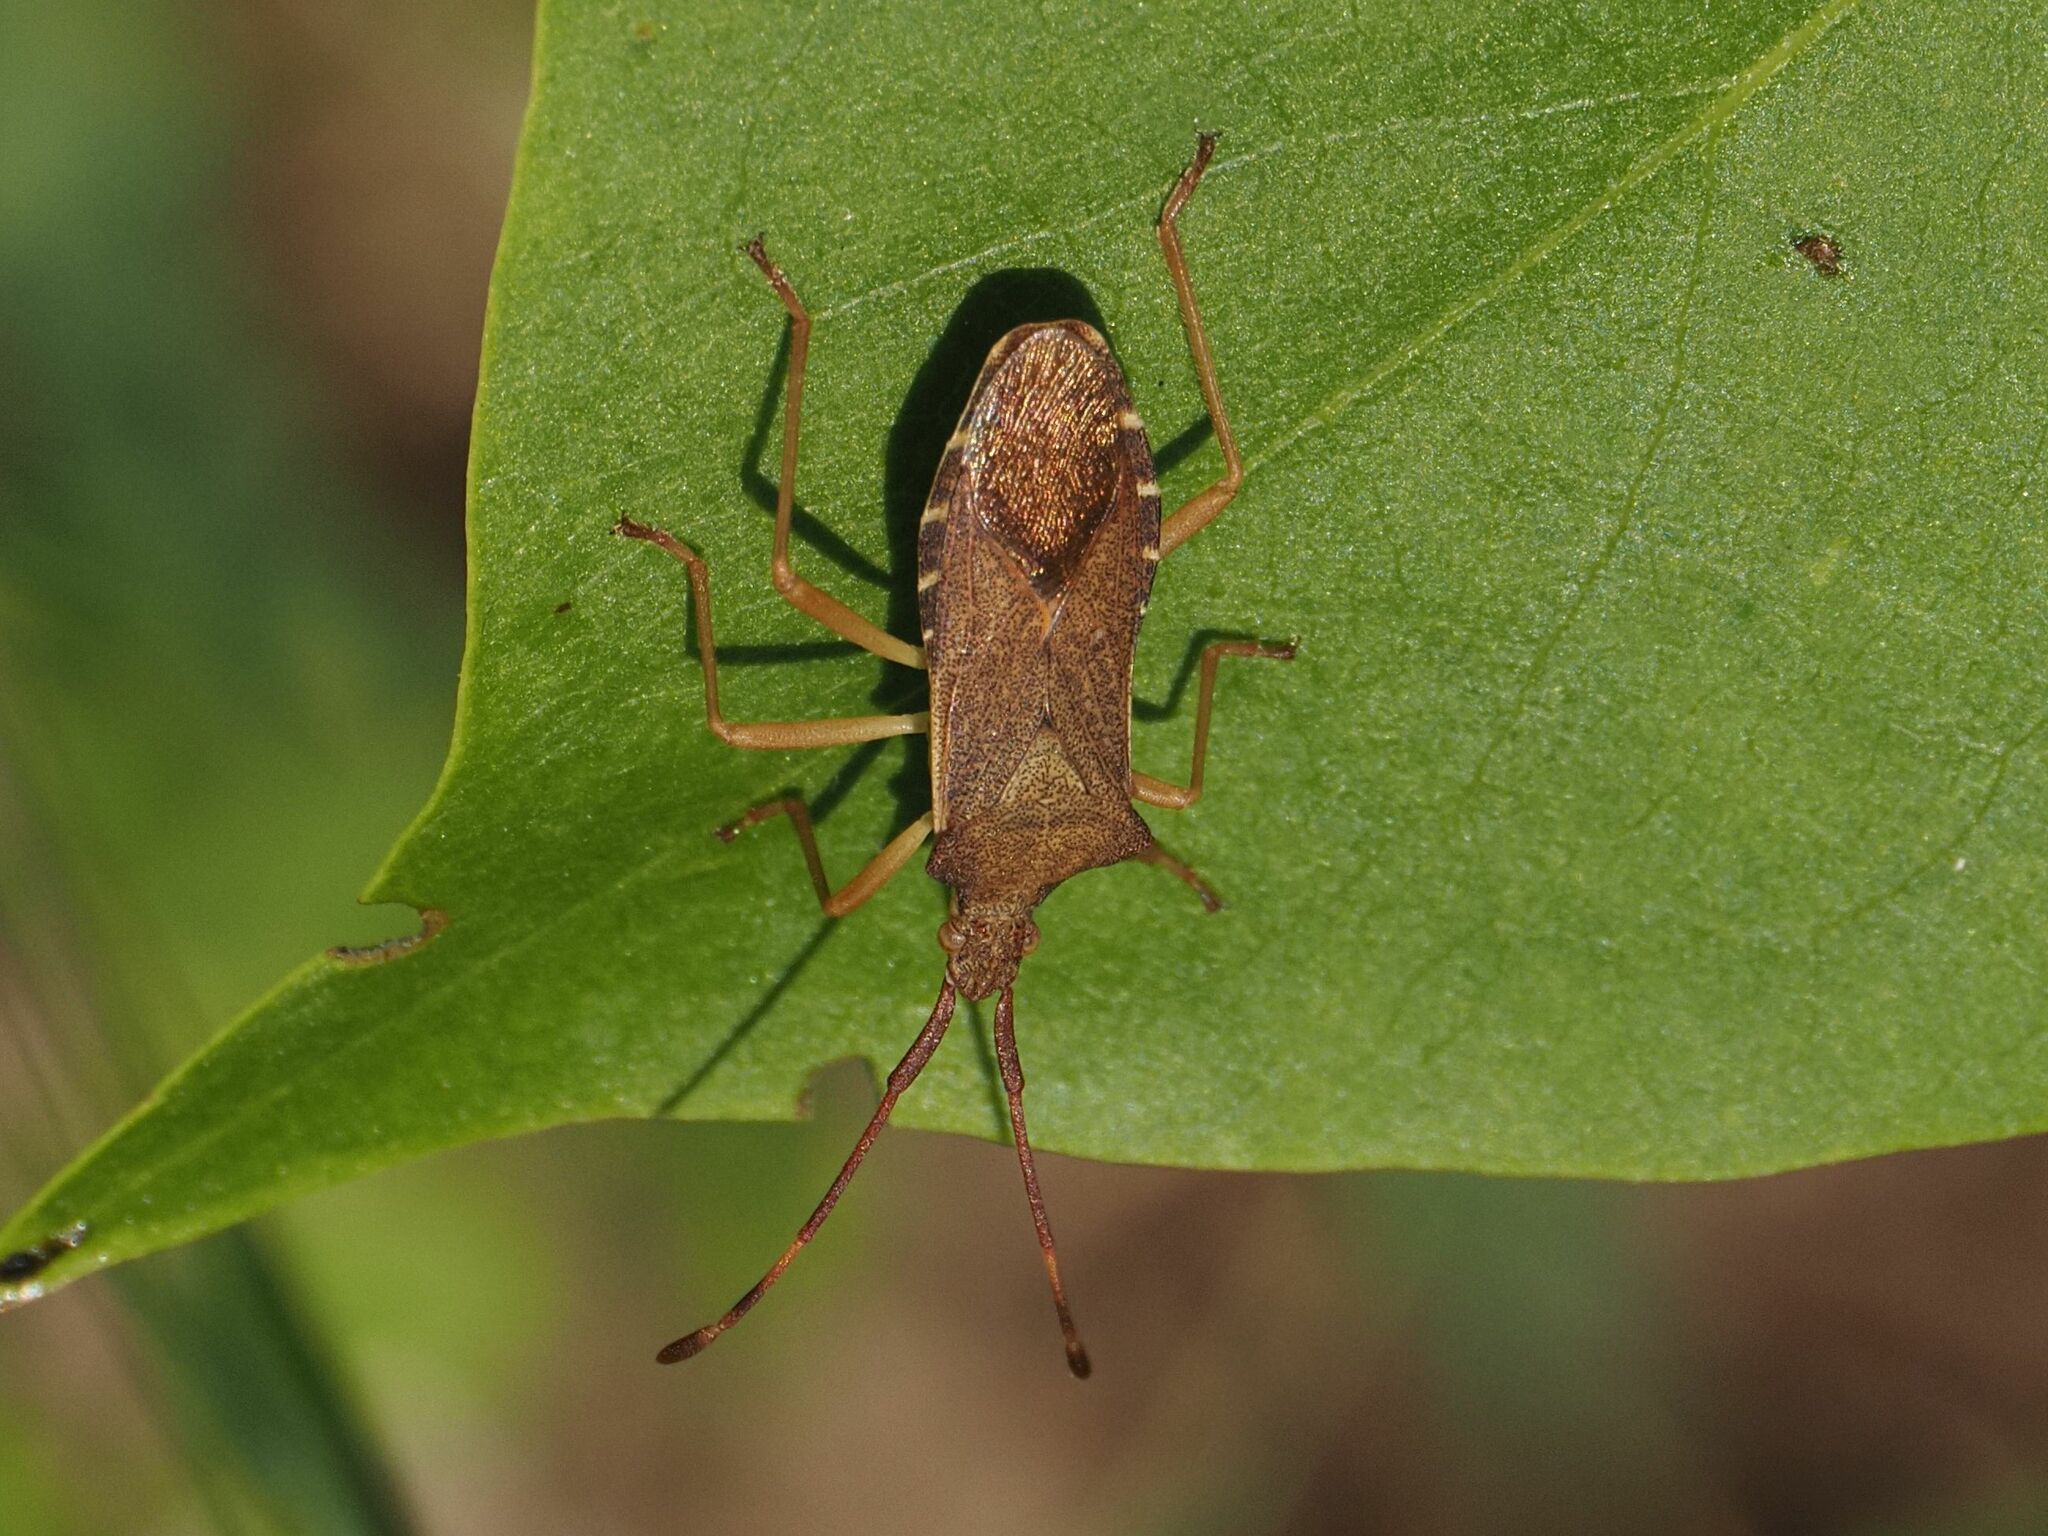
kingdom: Animalia
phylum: Arthropoda
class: Insecta
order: Hemiptera
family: Coreidae
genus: Gonocerus
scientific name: Gonocerus acuteangulatus
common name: Box bug
